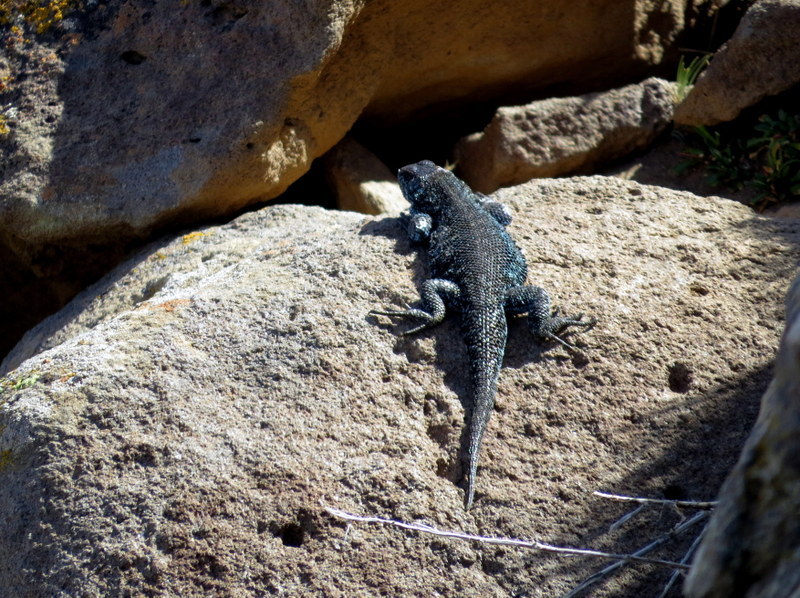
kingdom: Animalia
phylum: Chordata
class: Squamata
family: Liolaemidae
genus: Liolaemus
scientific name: Liolaemus silvanae
